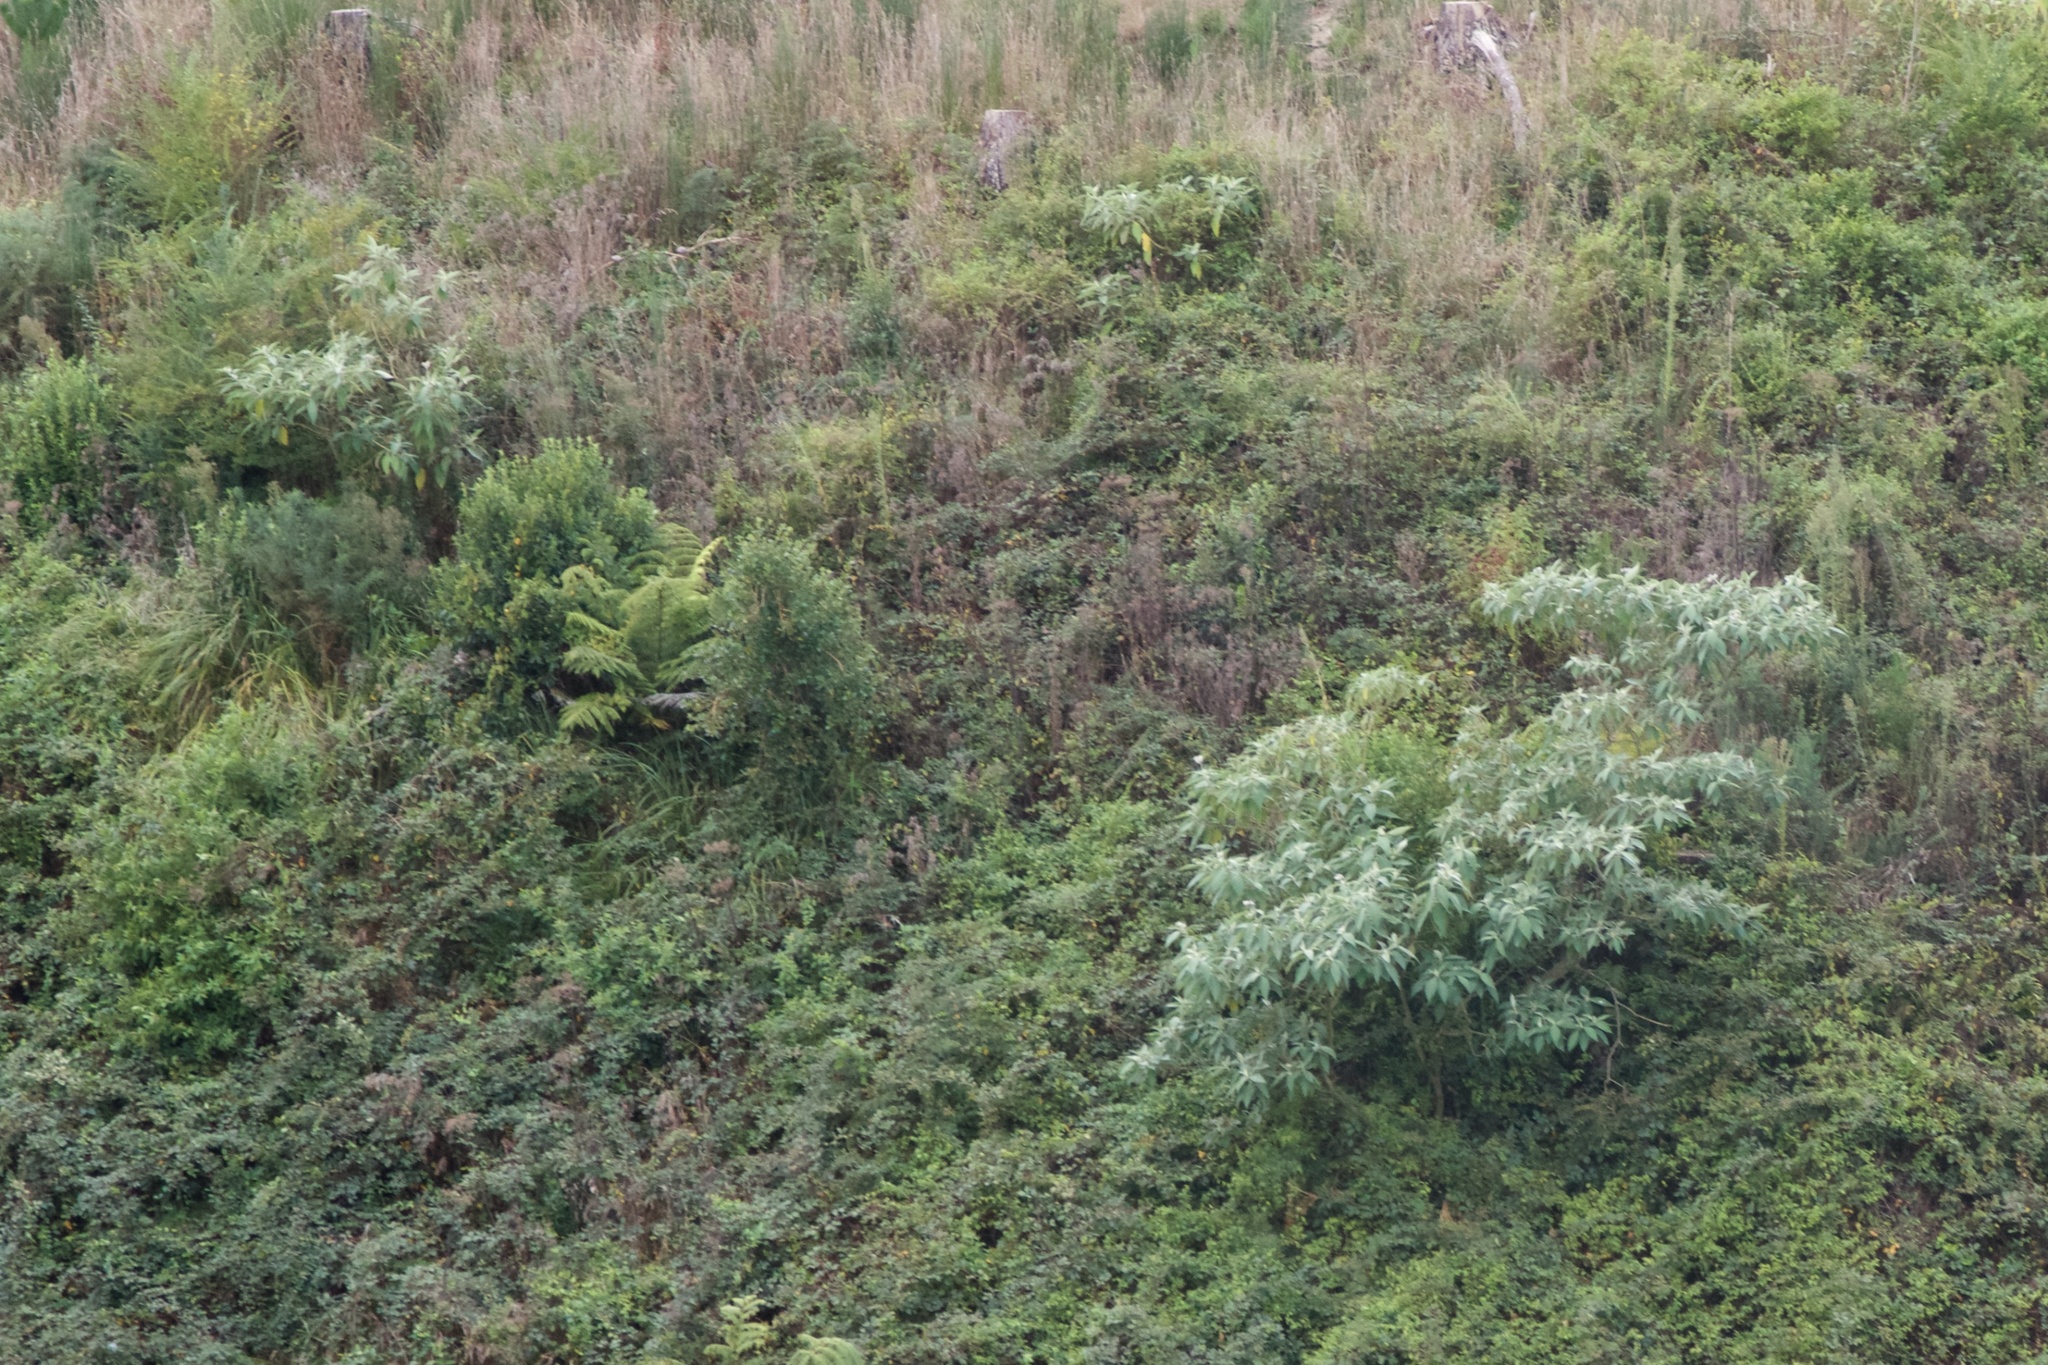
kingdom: Plantae
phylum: Tracheophyta
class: Magnoliopsida
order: Solanales
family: Solanaceae
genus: Solanum
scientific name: Solanum mauritianum
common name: Earleaf nightshade
